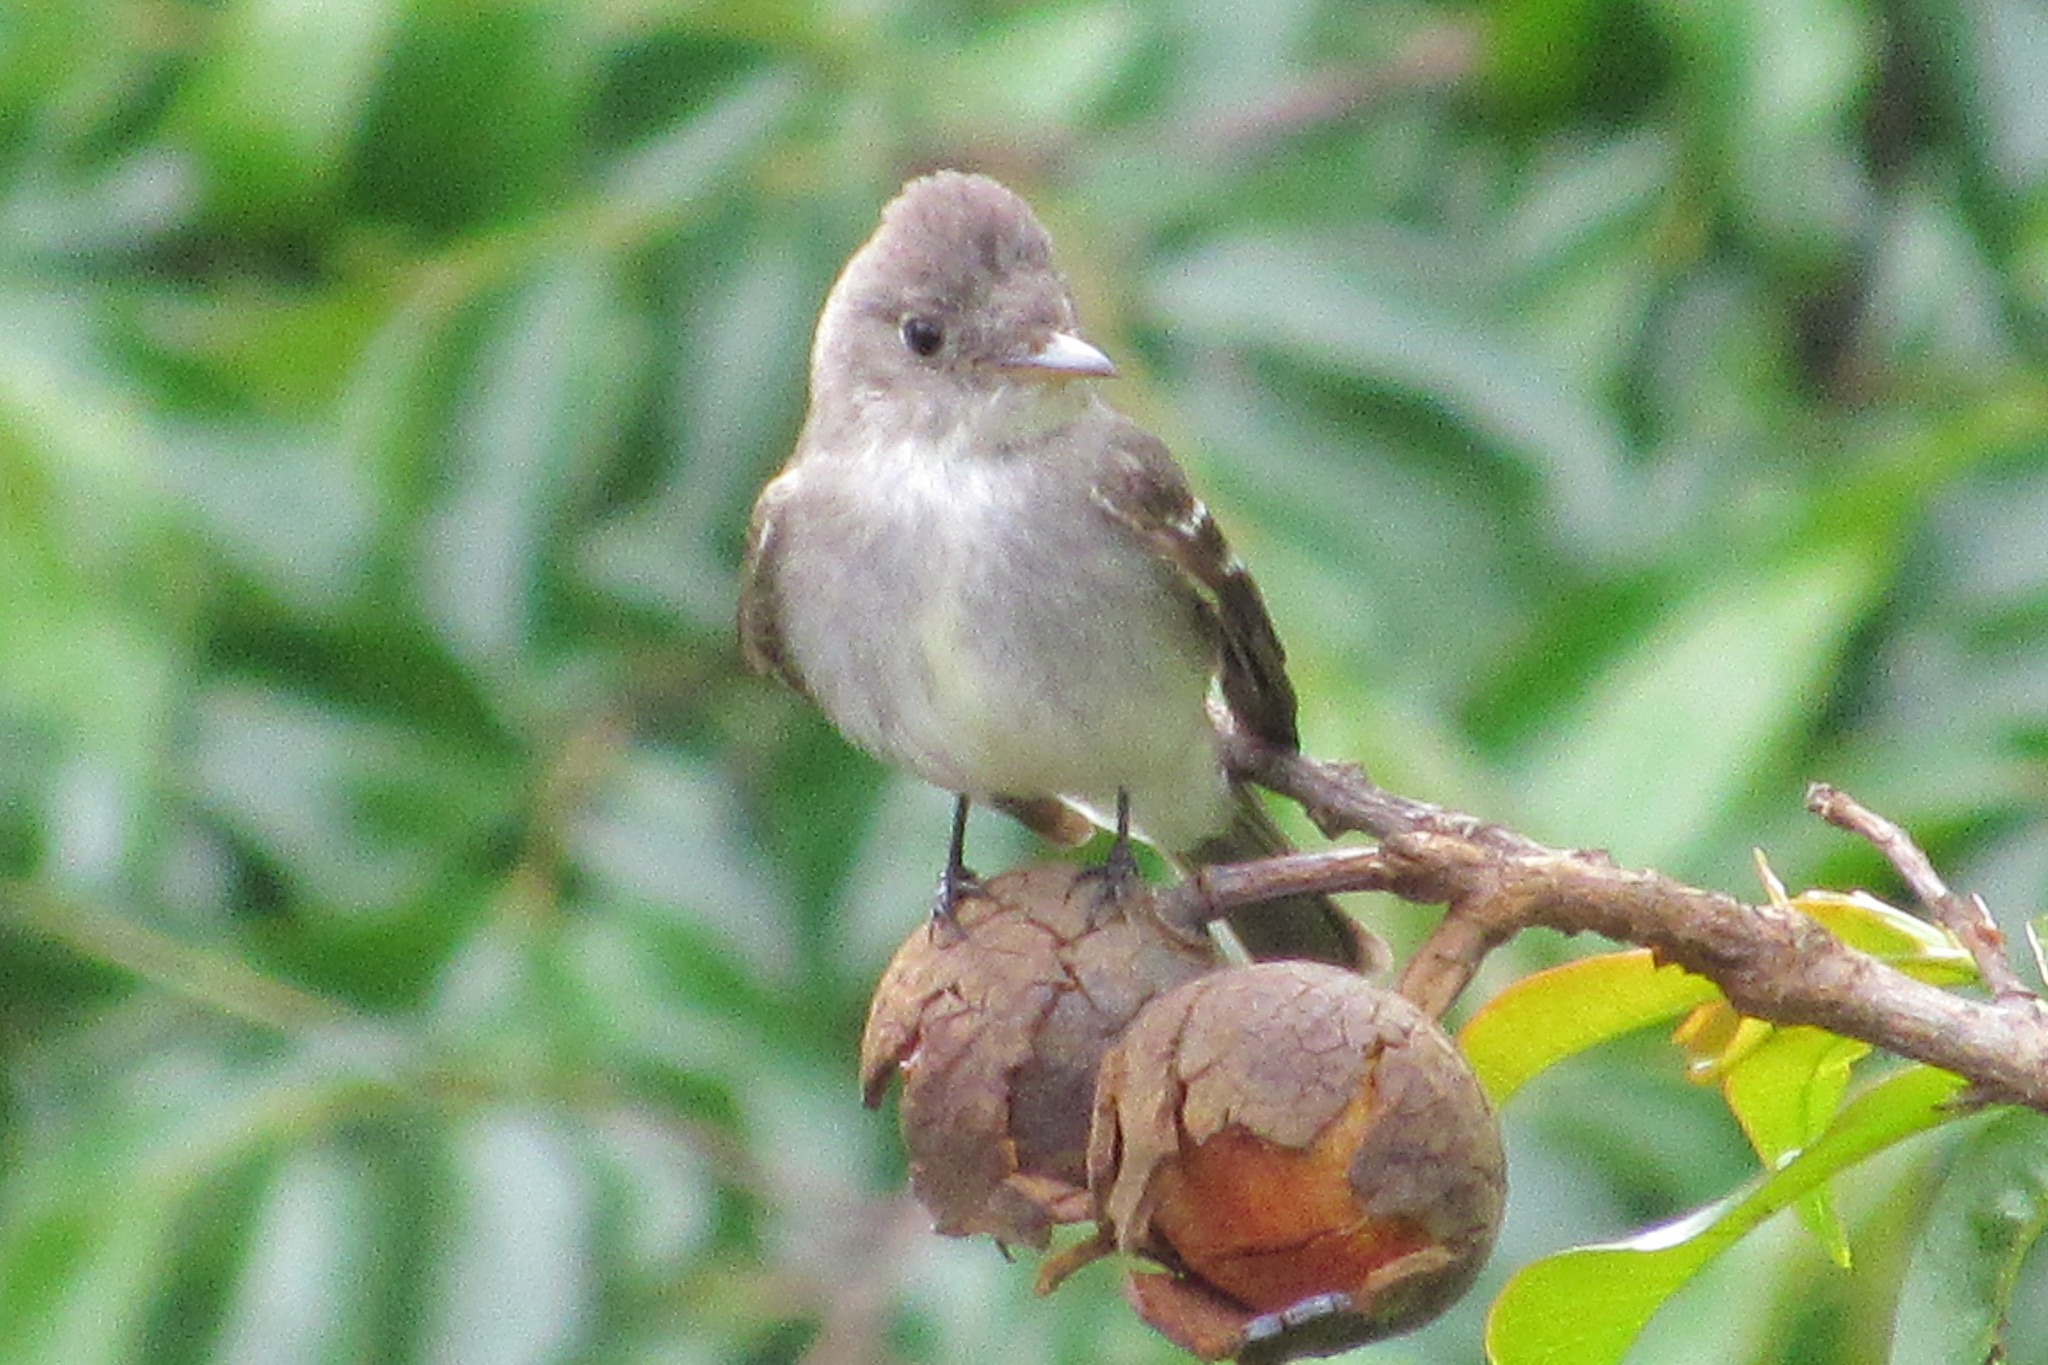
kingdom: Animalia
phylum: Chordata
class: Aves
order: Passeriformes
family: Tyrannidae
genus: Contopus
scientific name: Contopus virens
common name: Eastern wood-pewee
